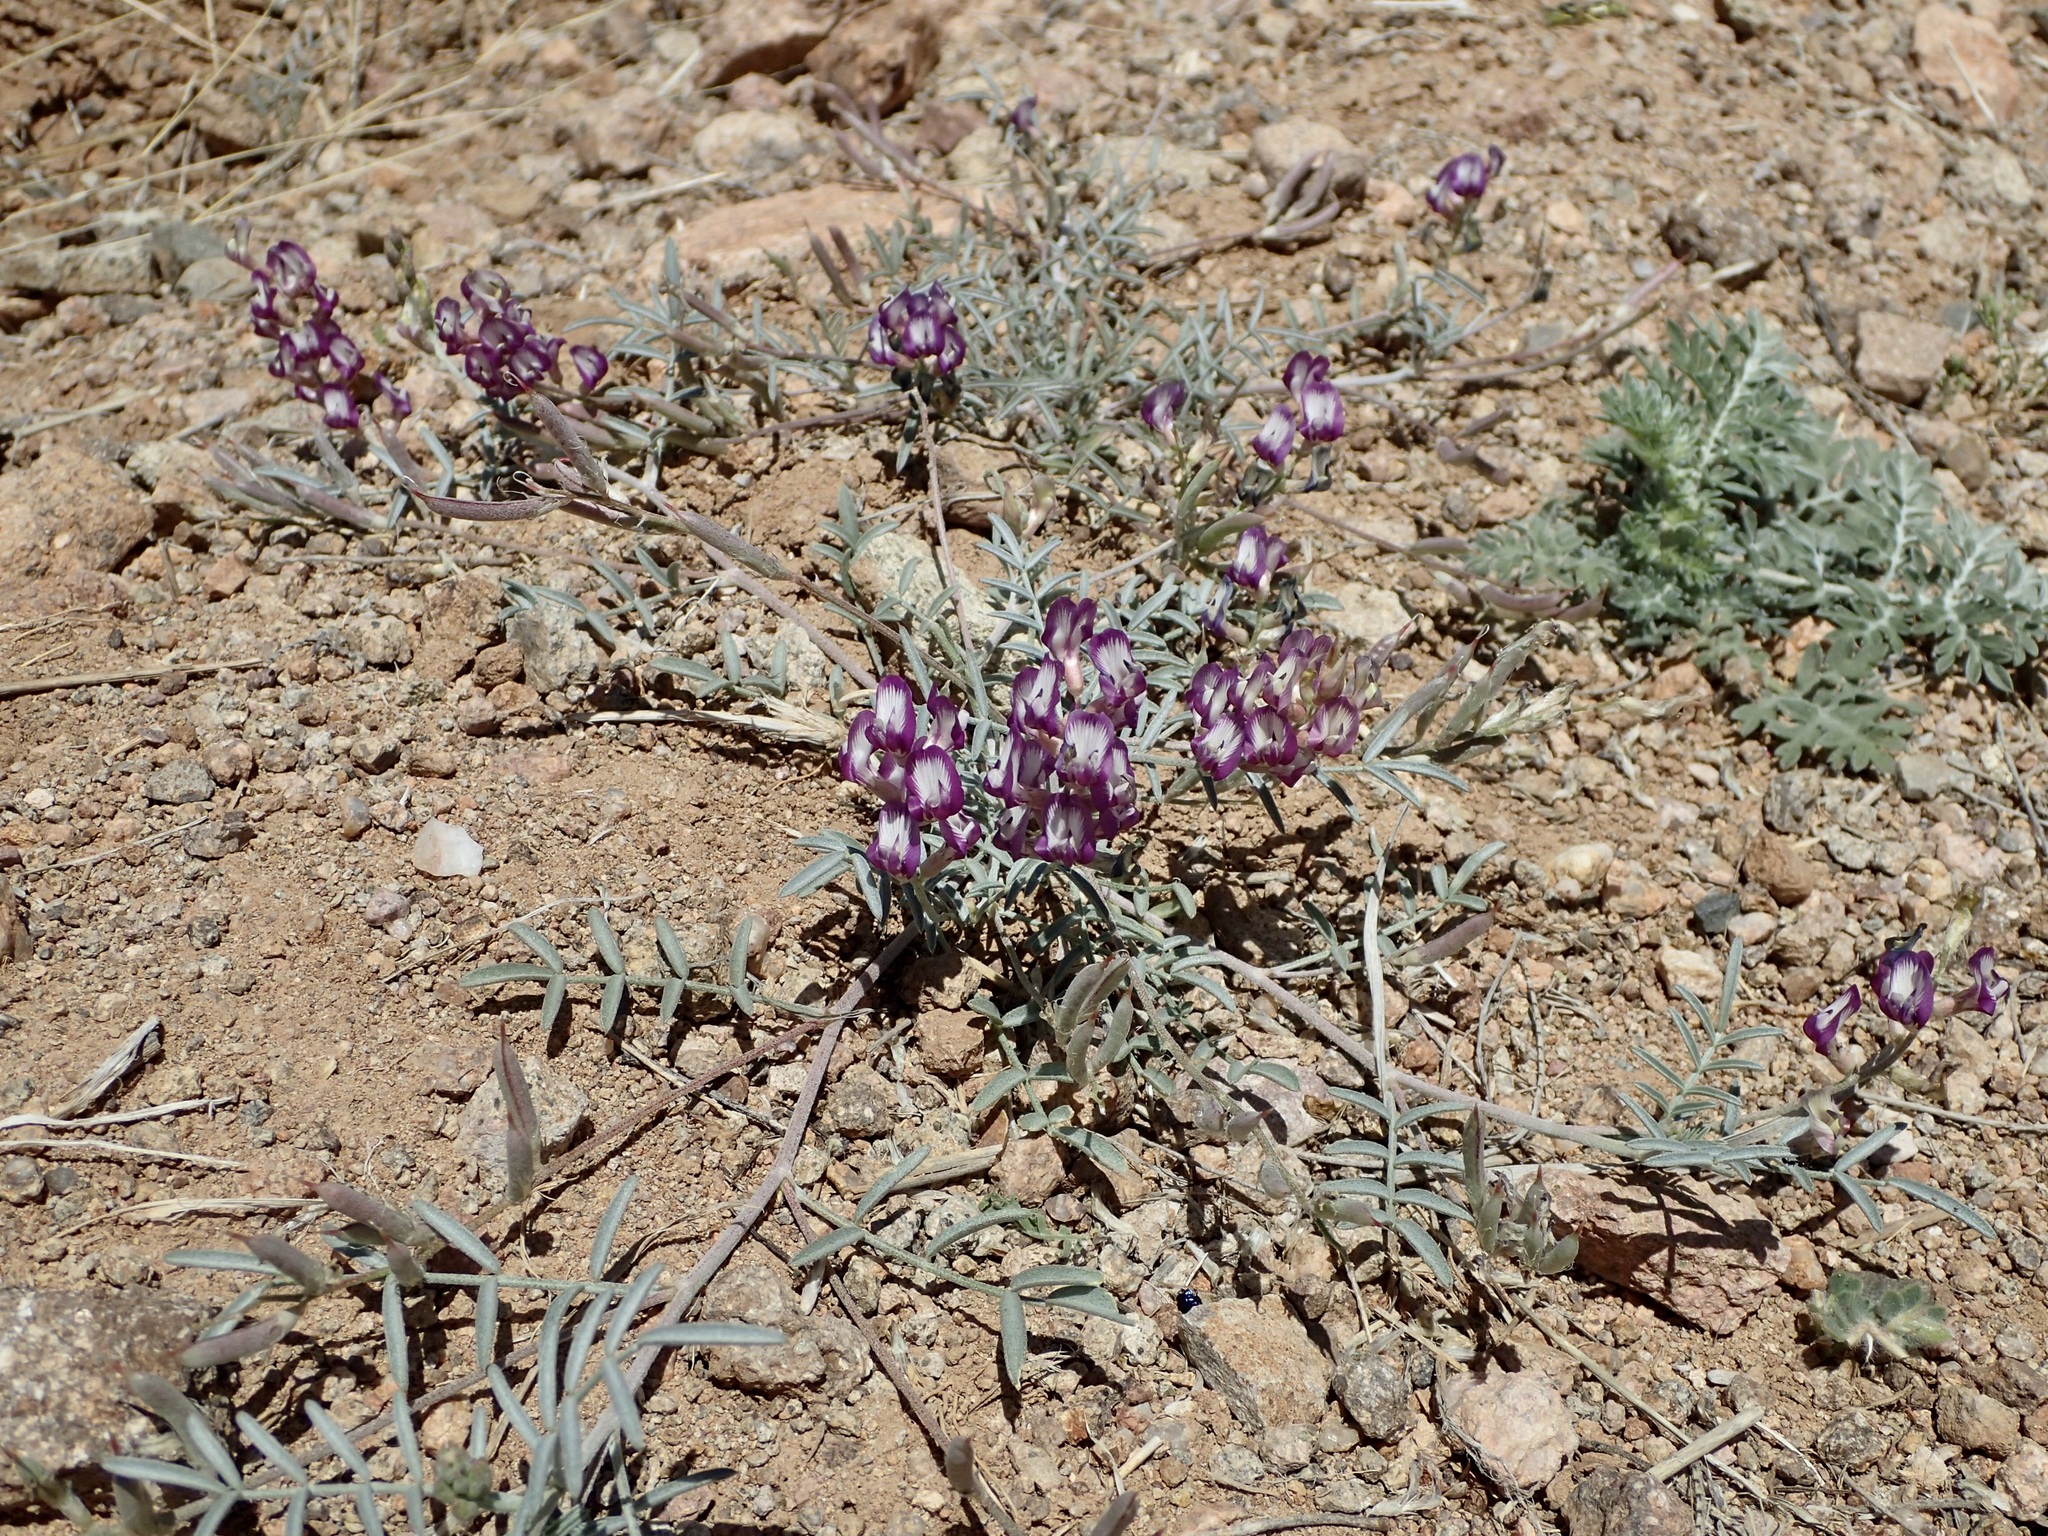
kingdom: Plantae
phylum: Tracheophyta
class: Magnoliopsida
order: Fabales
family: Fabaceae
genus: Astragalus
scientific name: Astragalus arizonicus
